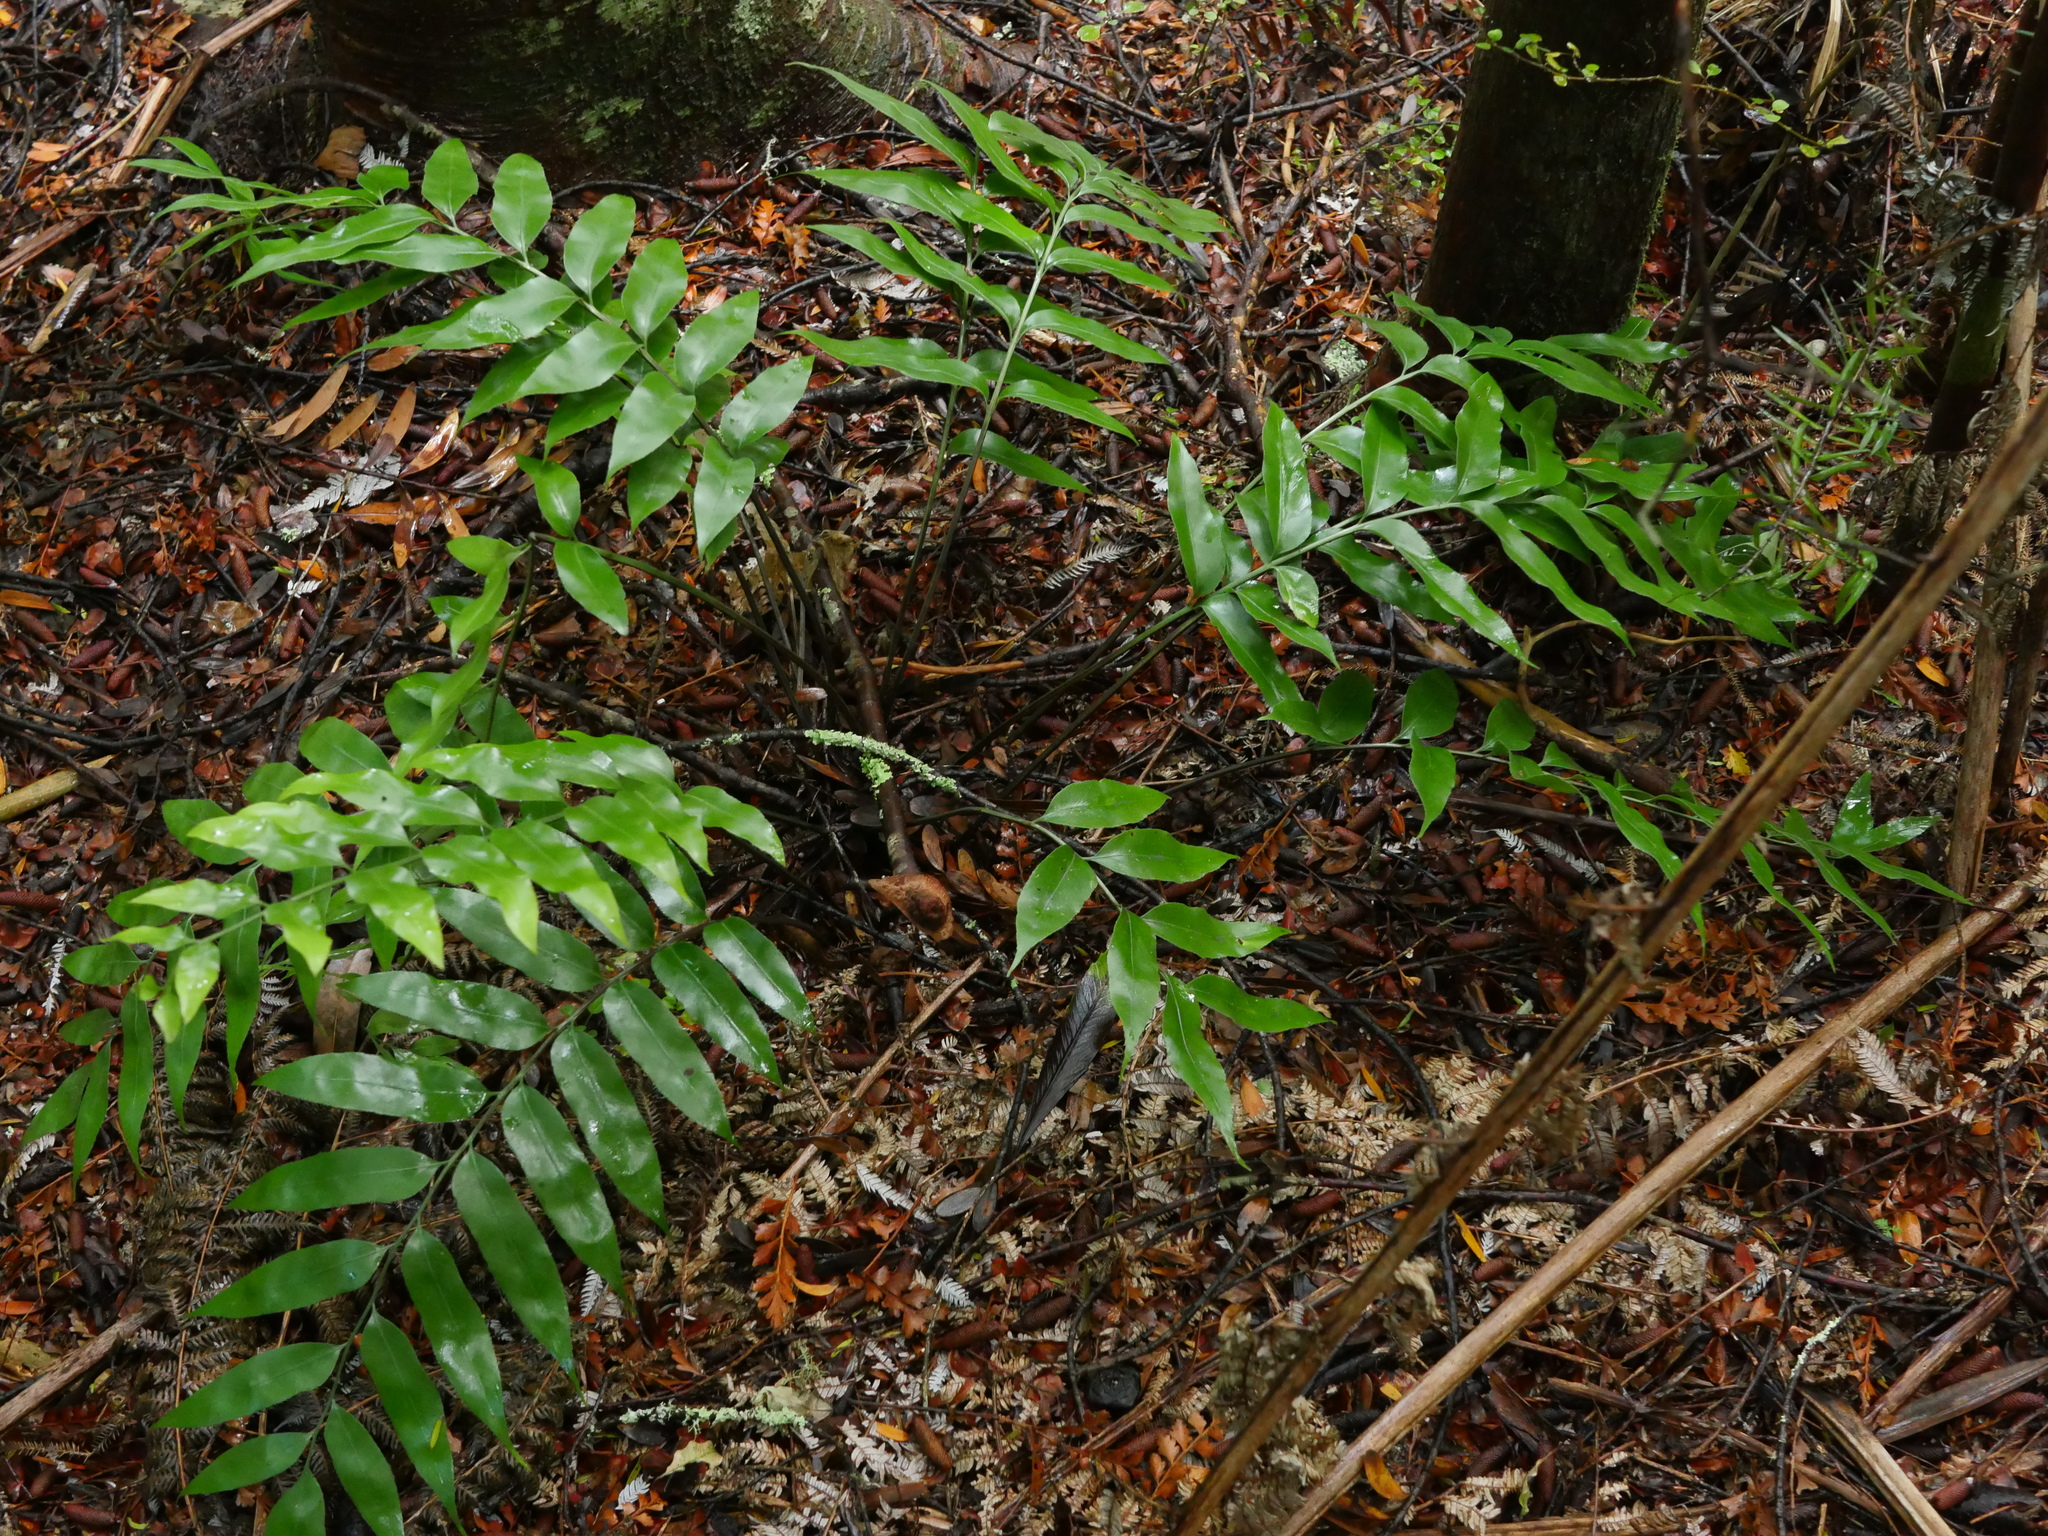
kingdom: Plantae
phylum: Tracheophyta
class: Polypodiopsida
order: Polypodiales
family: Aspleniaceae
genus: Asplenium
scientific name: Asplenium oblongifolium
